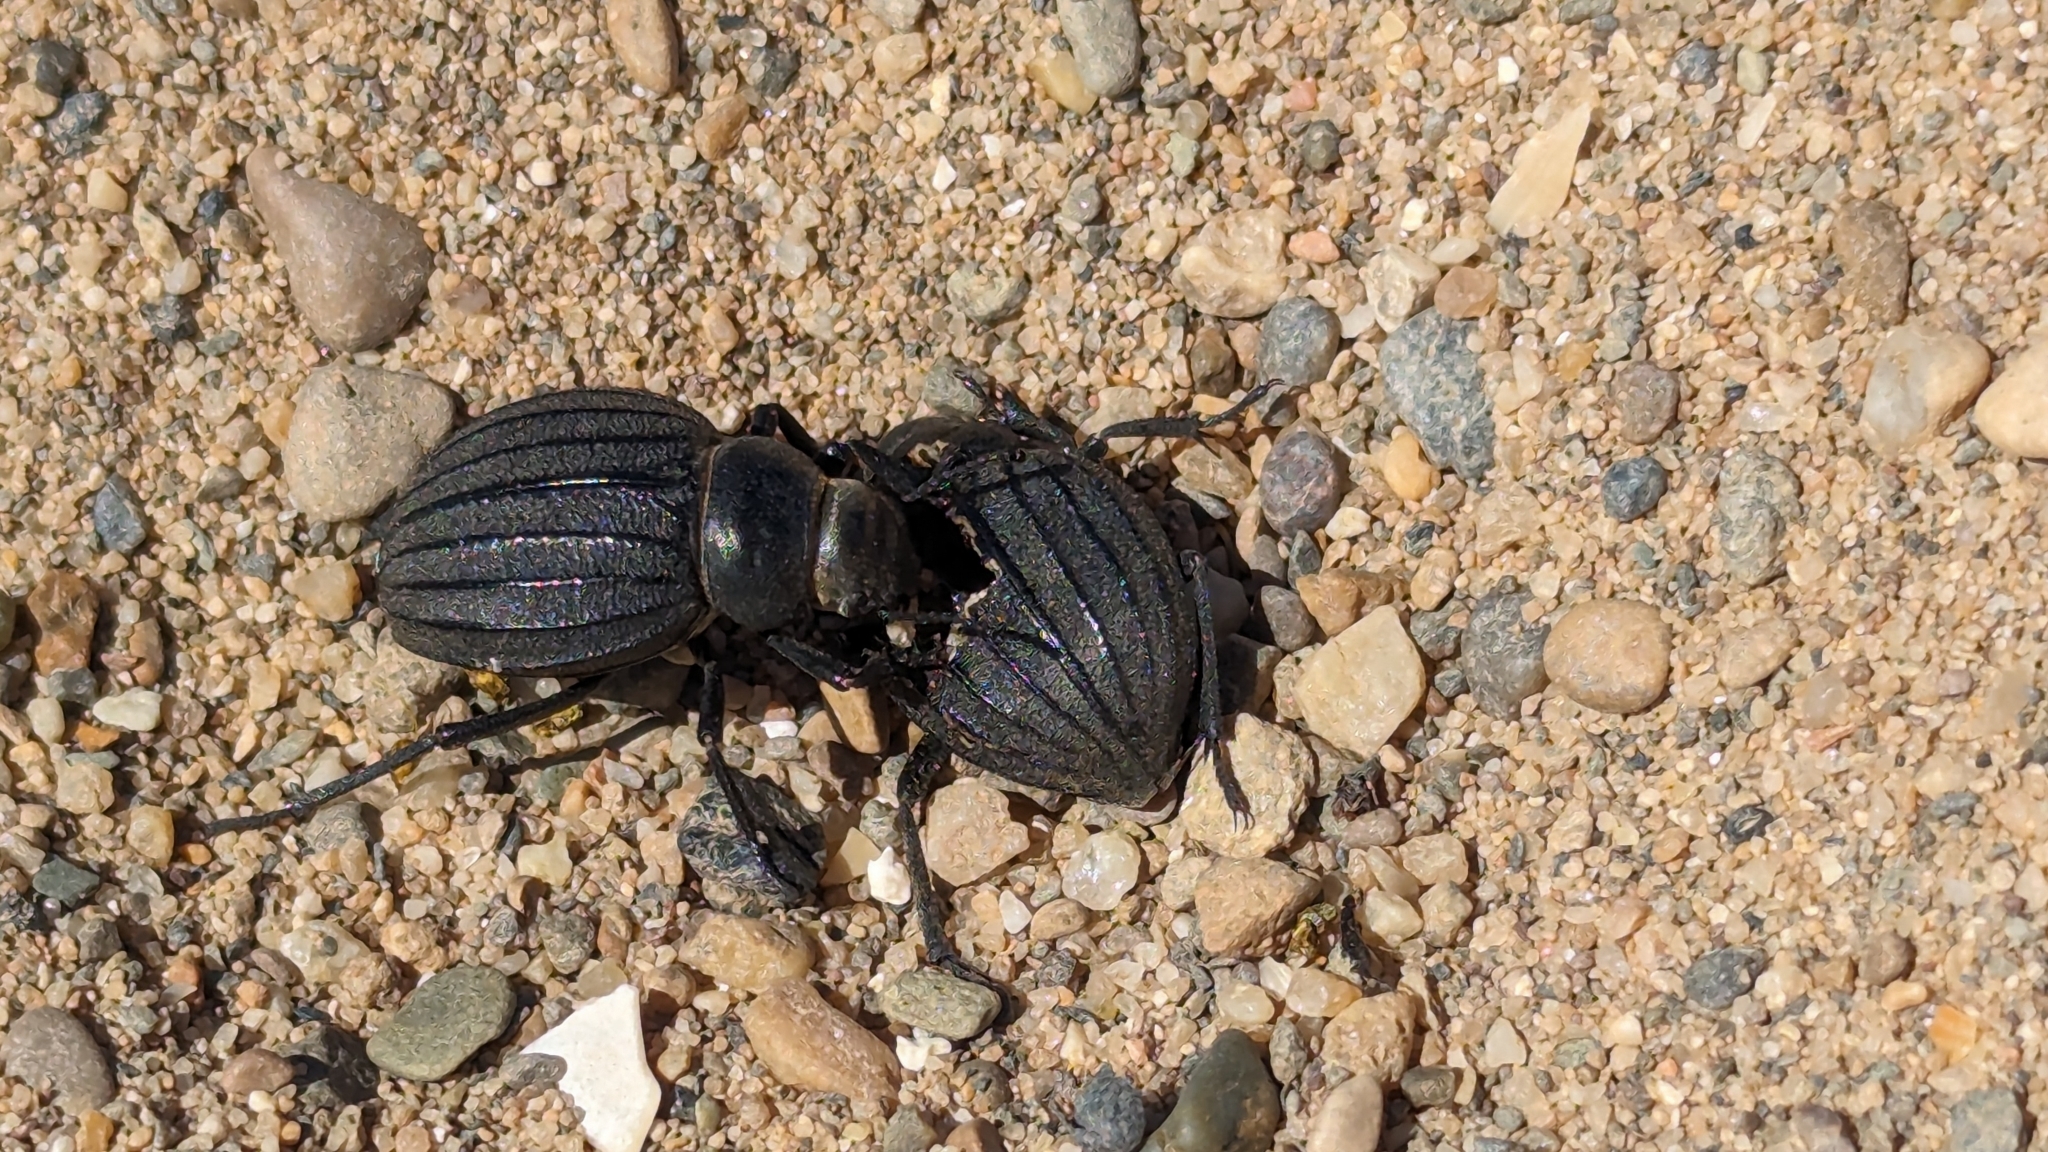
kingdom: Animalia
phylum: Arthropoda
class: Insecta
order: Coleoptera
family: Tenebrionidae
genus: Pimelia
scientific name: Pimelia muricata
